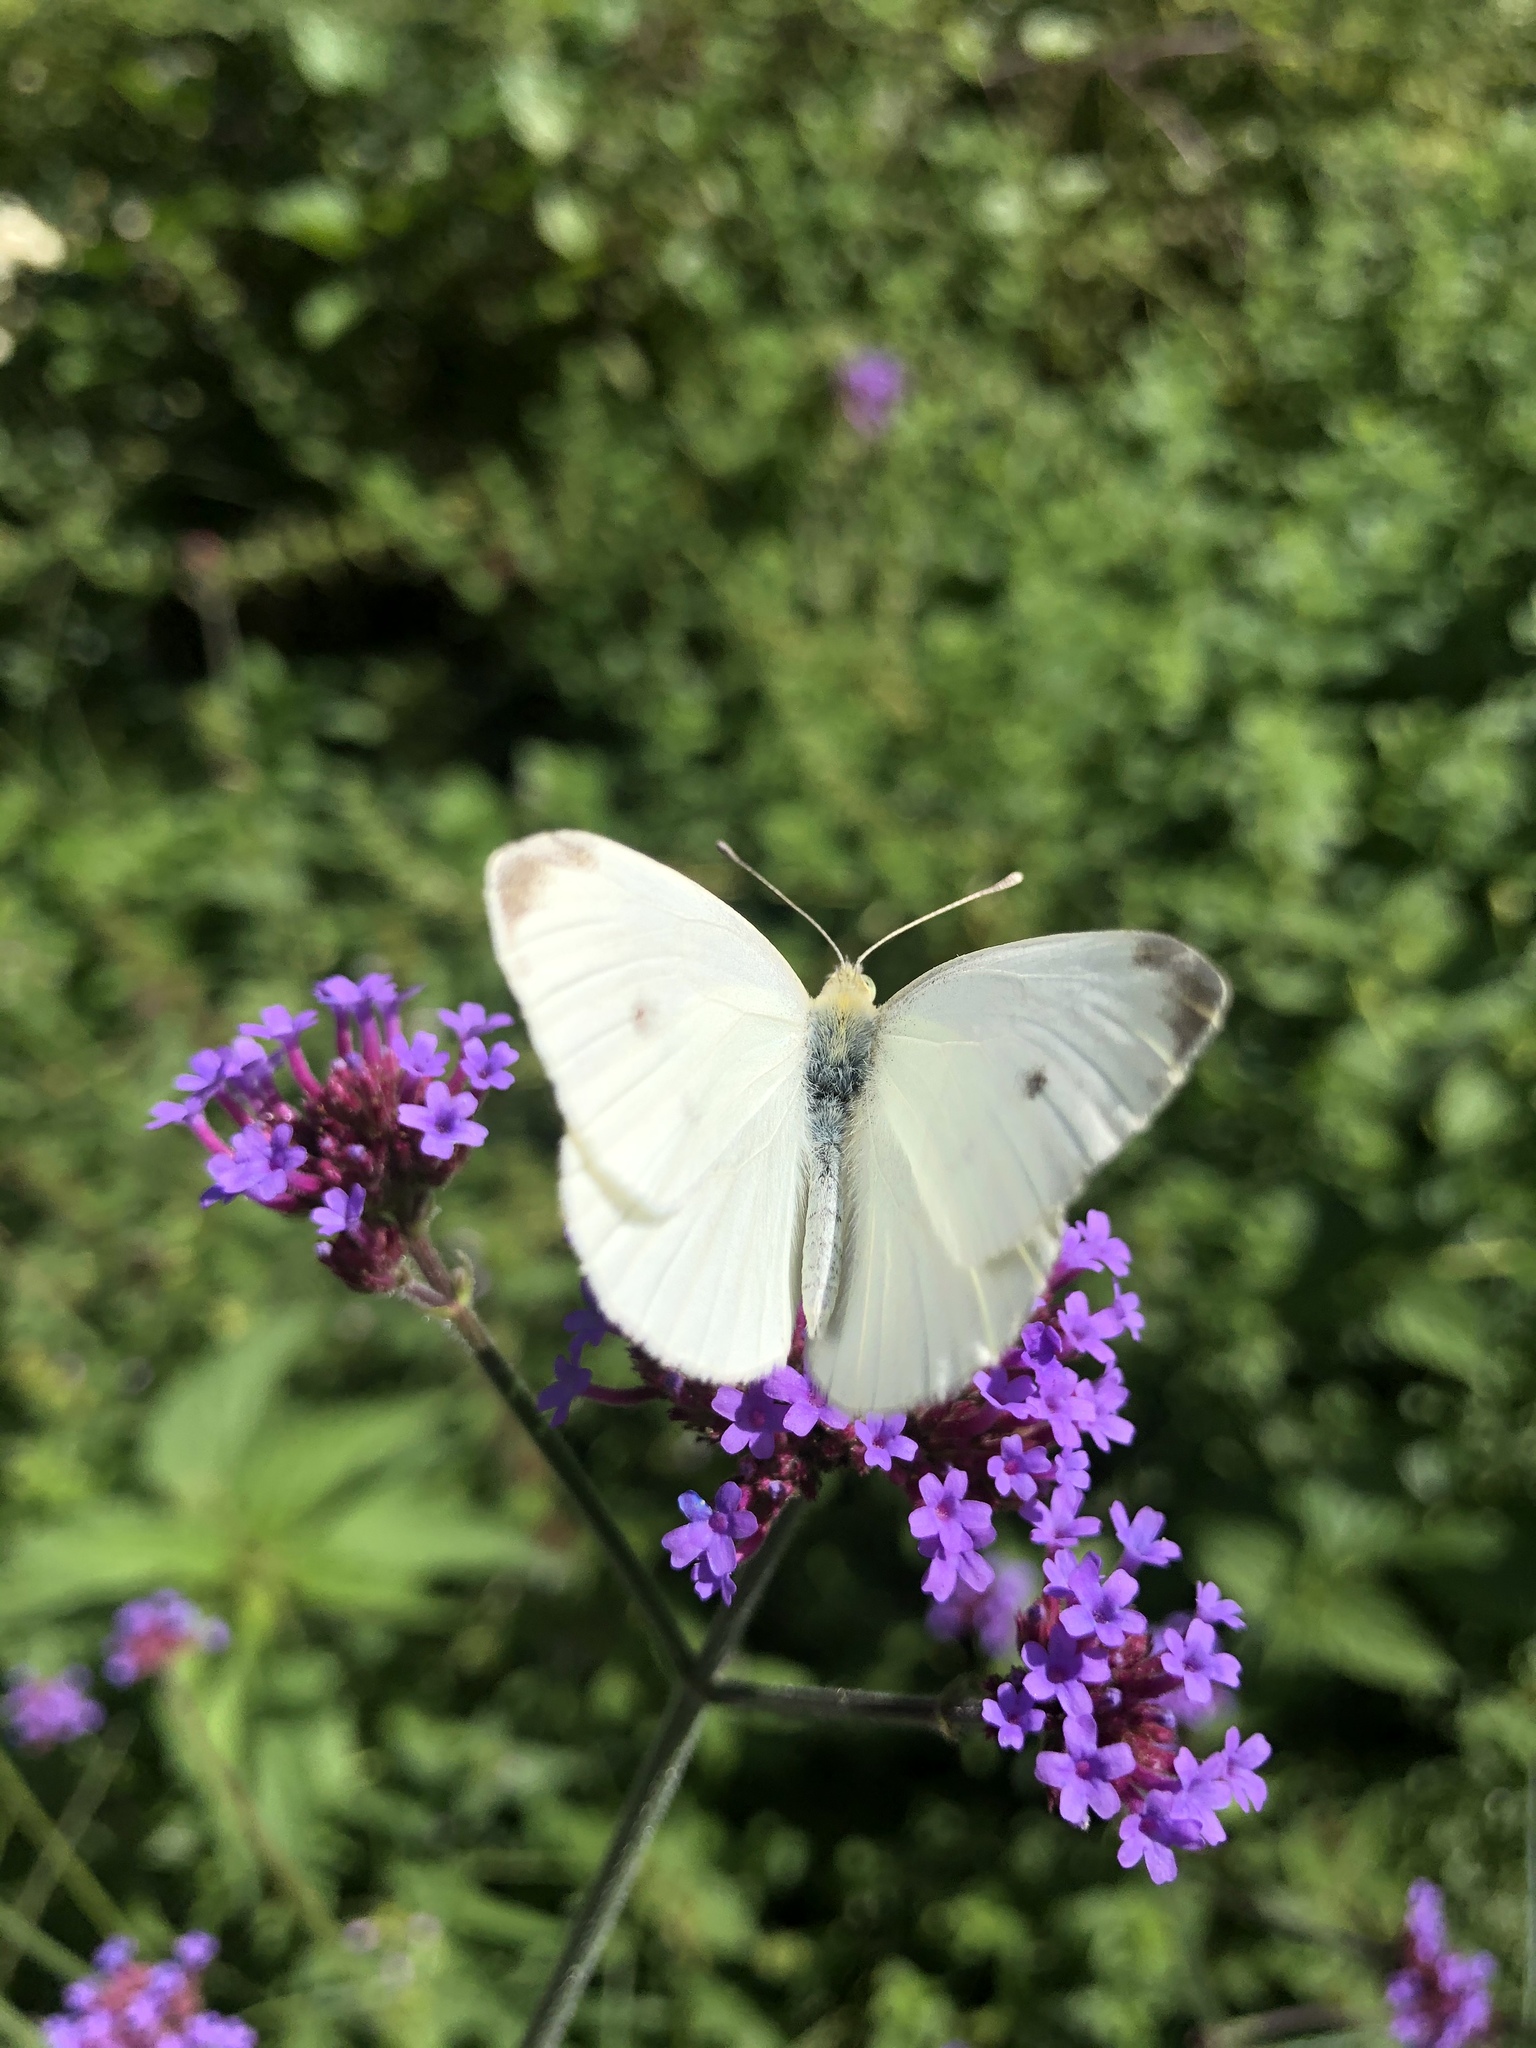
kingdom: Animalia
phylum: Arthropoda
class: Insecta
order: Lepidoptera
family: Pieridae
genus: Pieris
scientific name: Pieris rapae
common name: Small white
